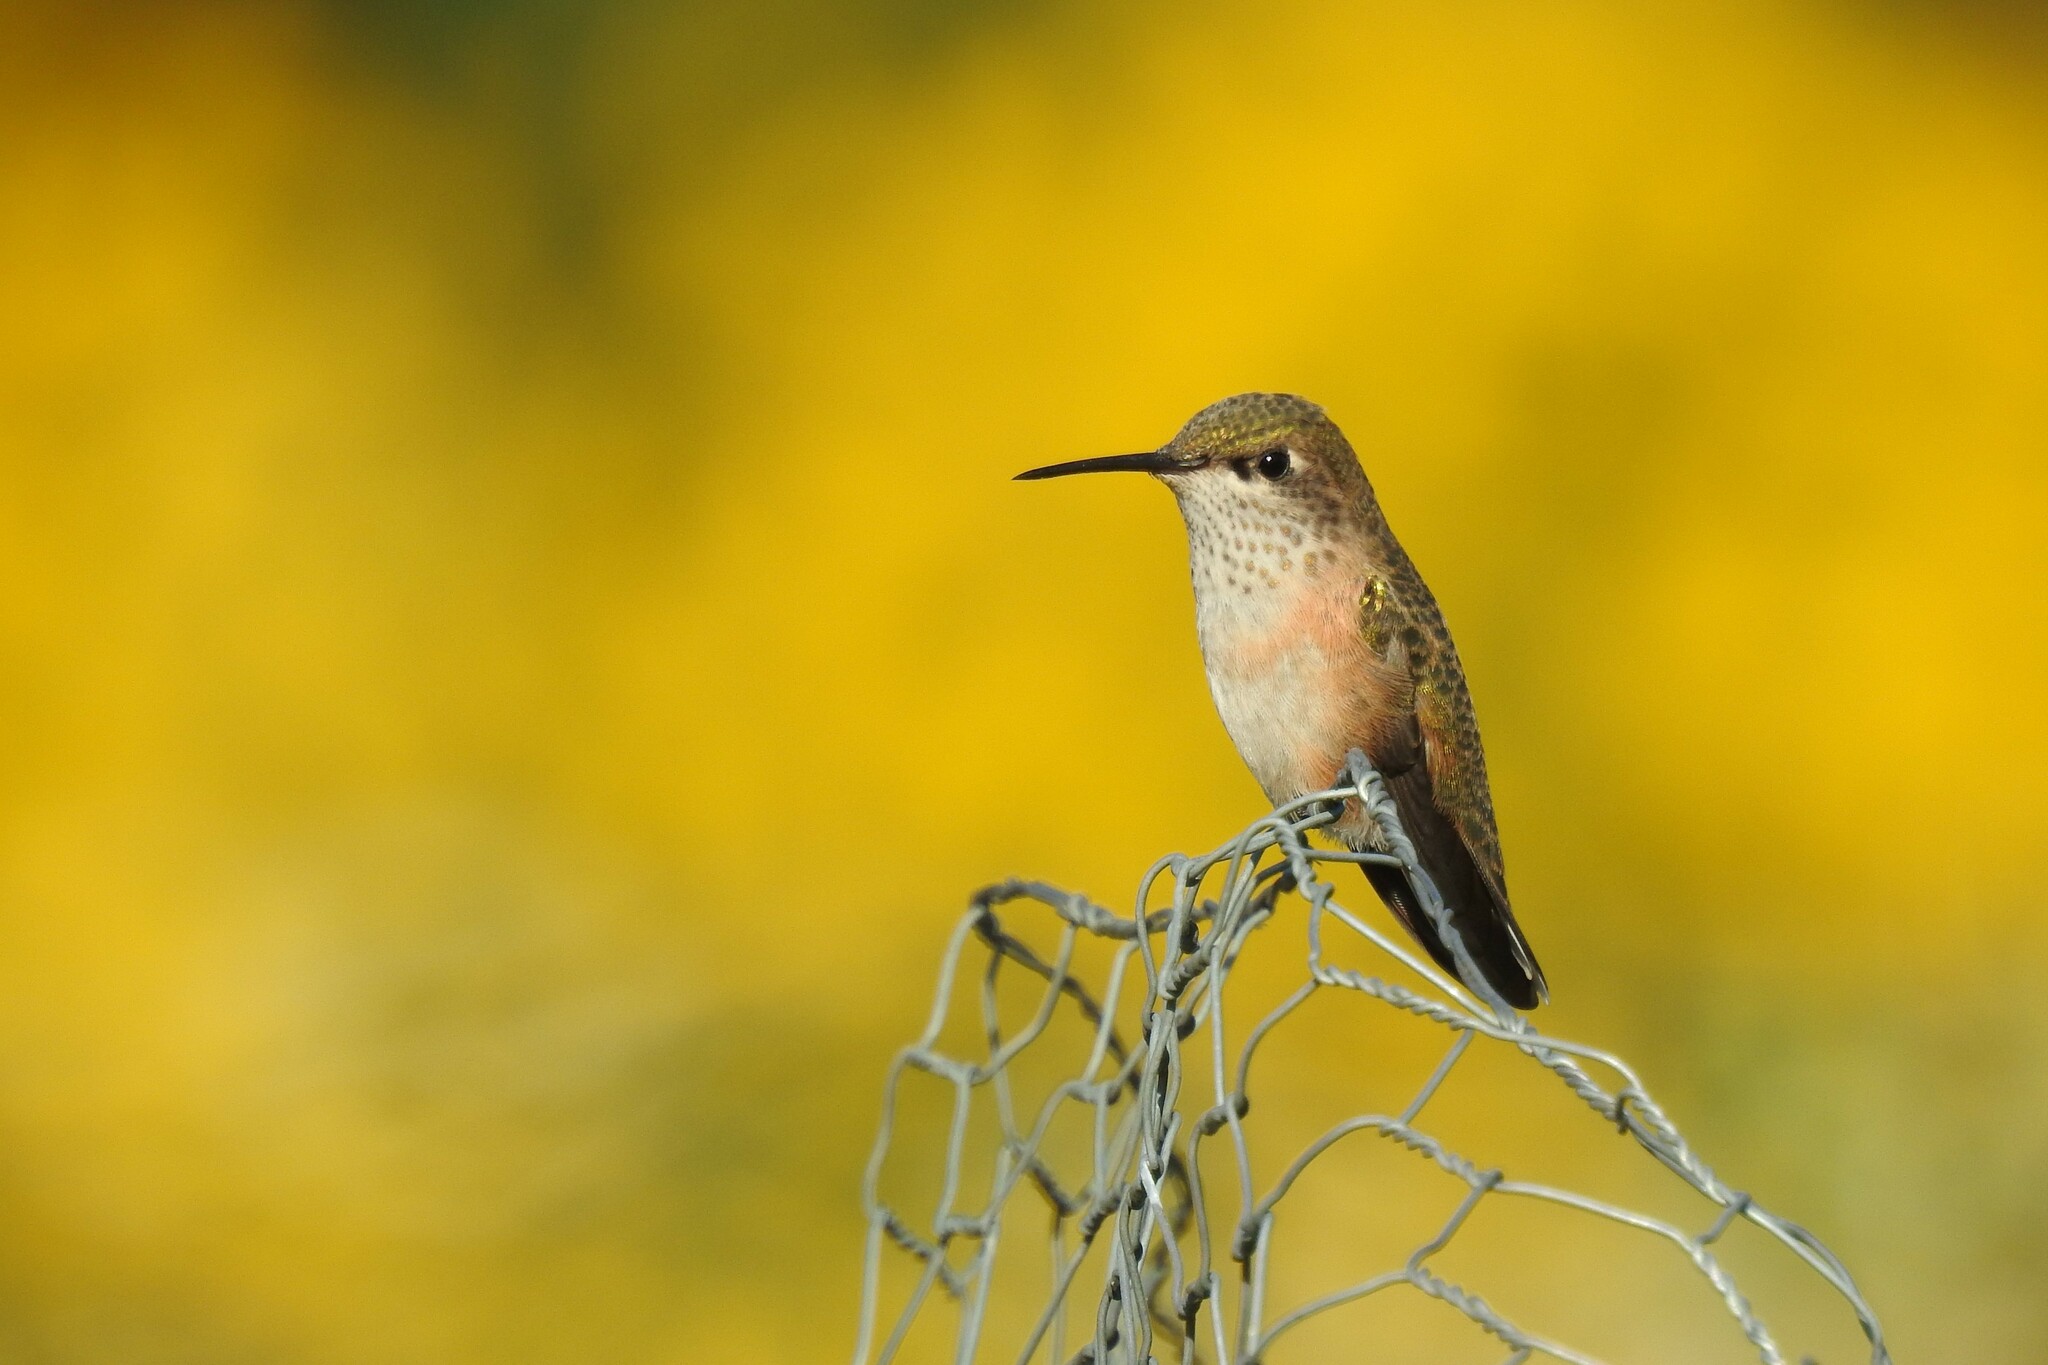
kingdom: Animalia
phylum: Chordata
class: Aves
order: Apodiformes
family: Trochilidae
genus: Selasphorus
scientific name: Selasphorus calliope
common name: Calliope hummingbird
